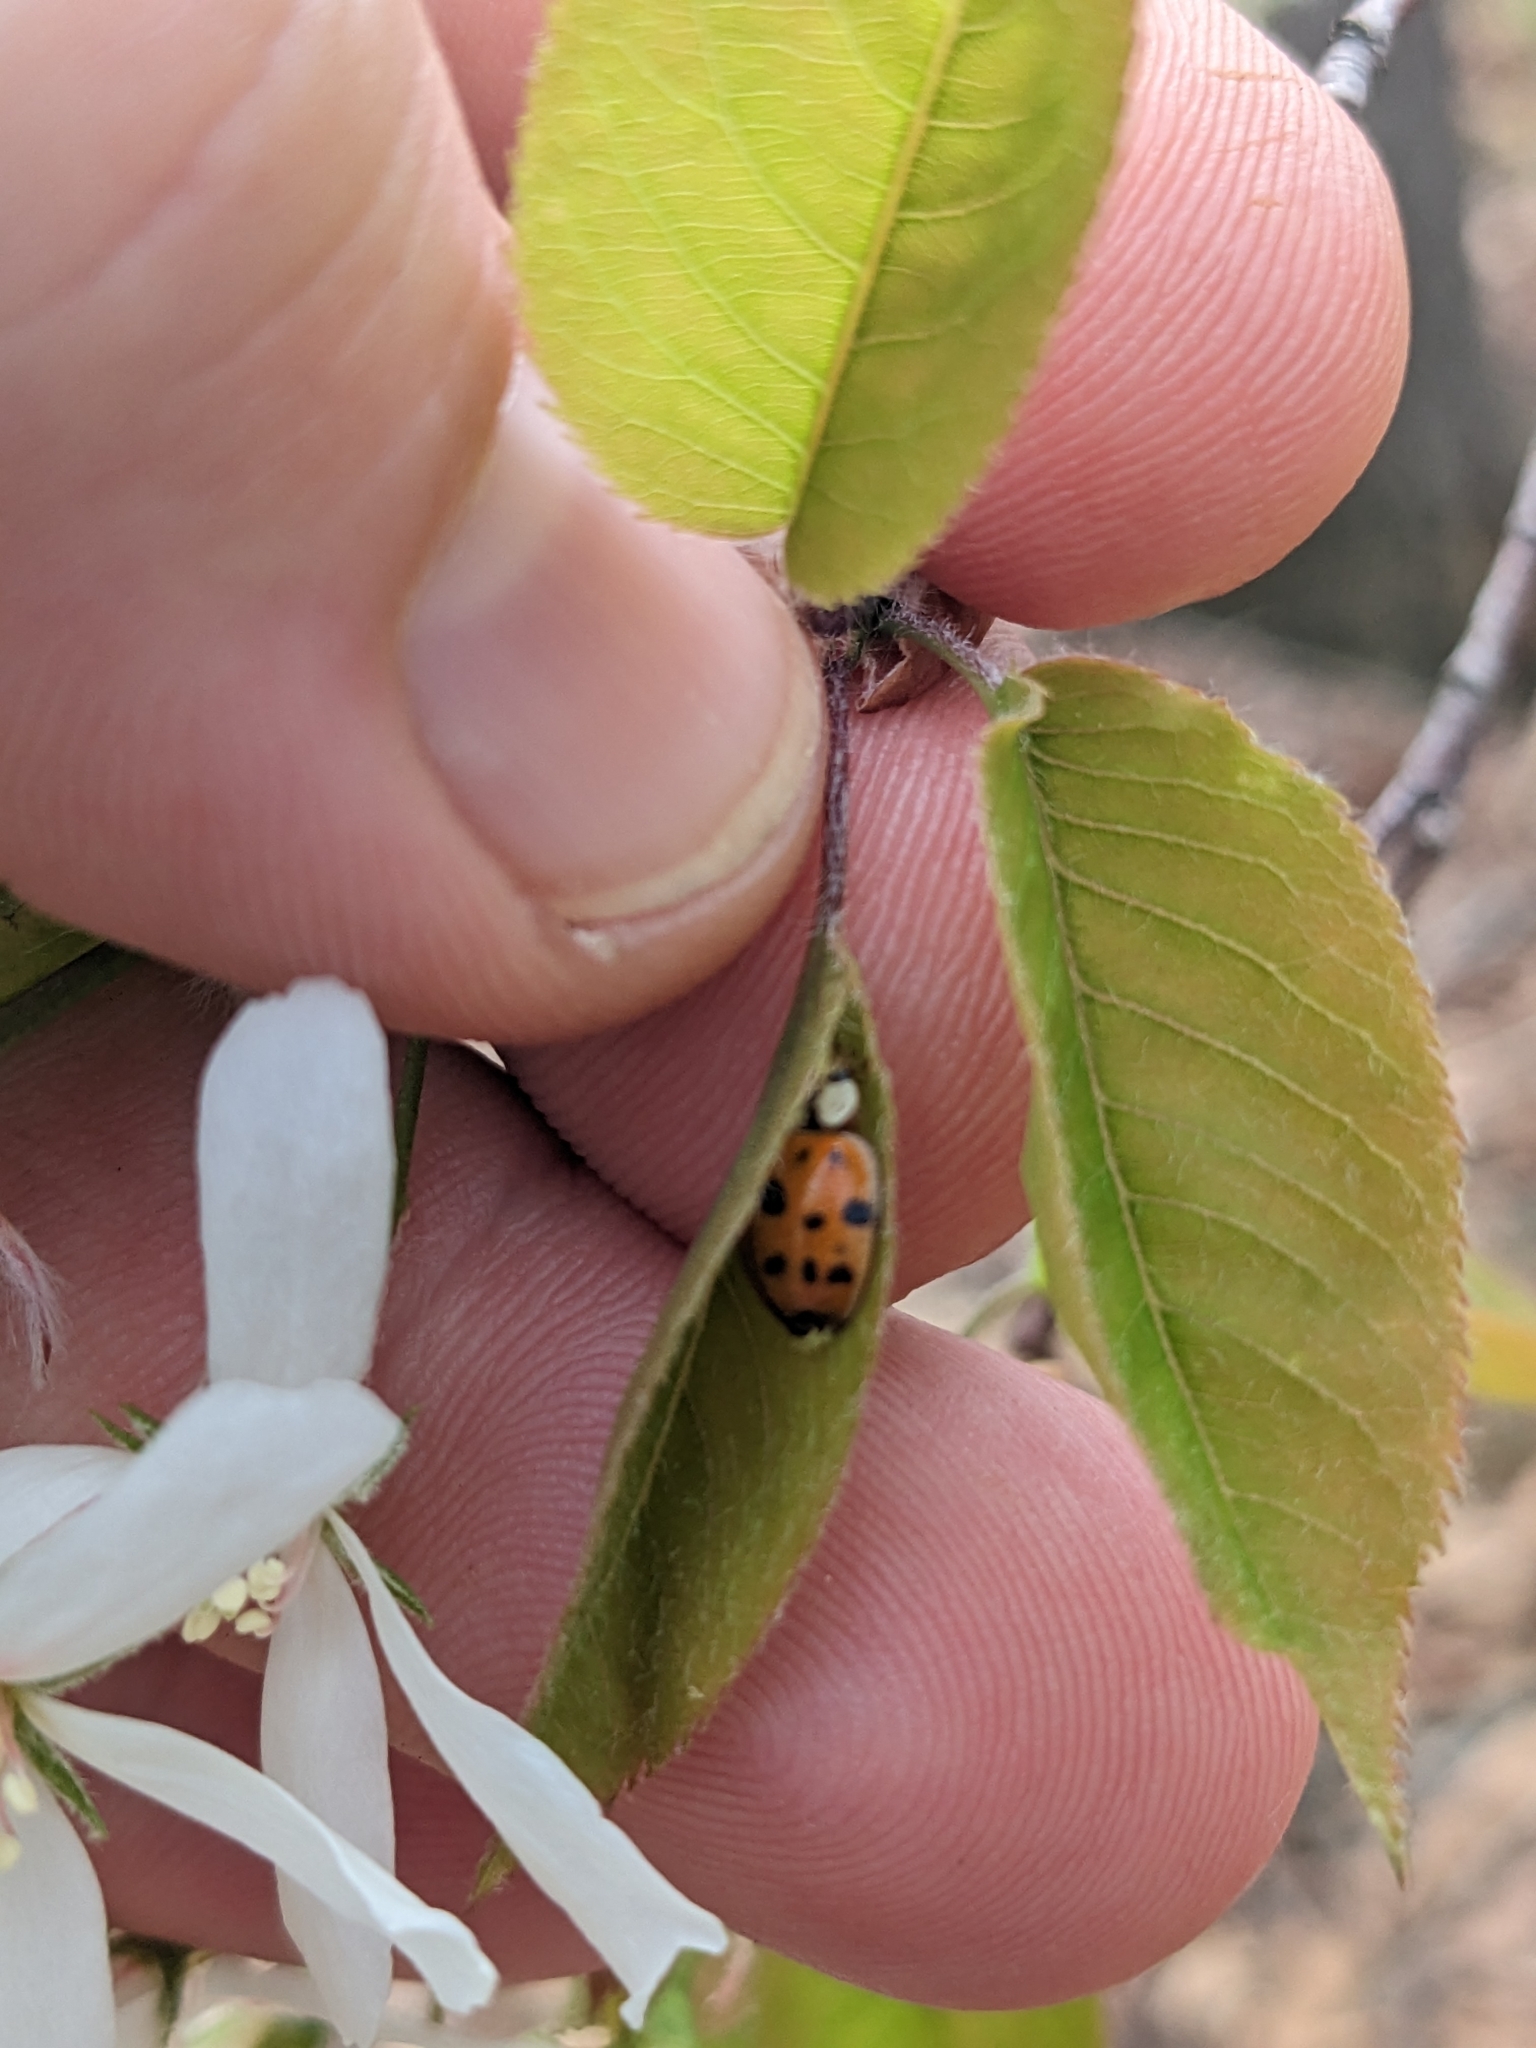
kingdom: Animalia
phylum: Arthropoda
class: Insecta
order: Coleoptera
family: Coccinellidae
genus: Harmonia
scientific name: Harmonia axyridis
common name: Harlequin ladybird
